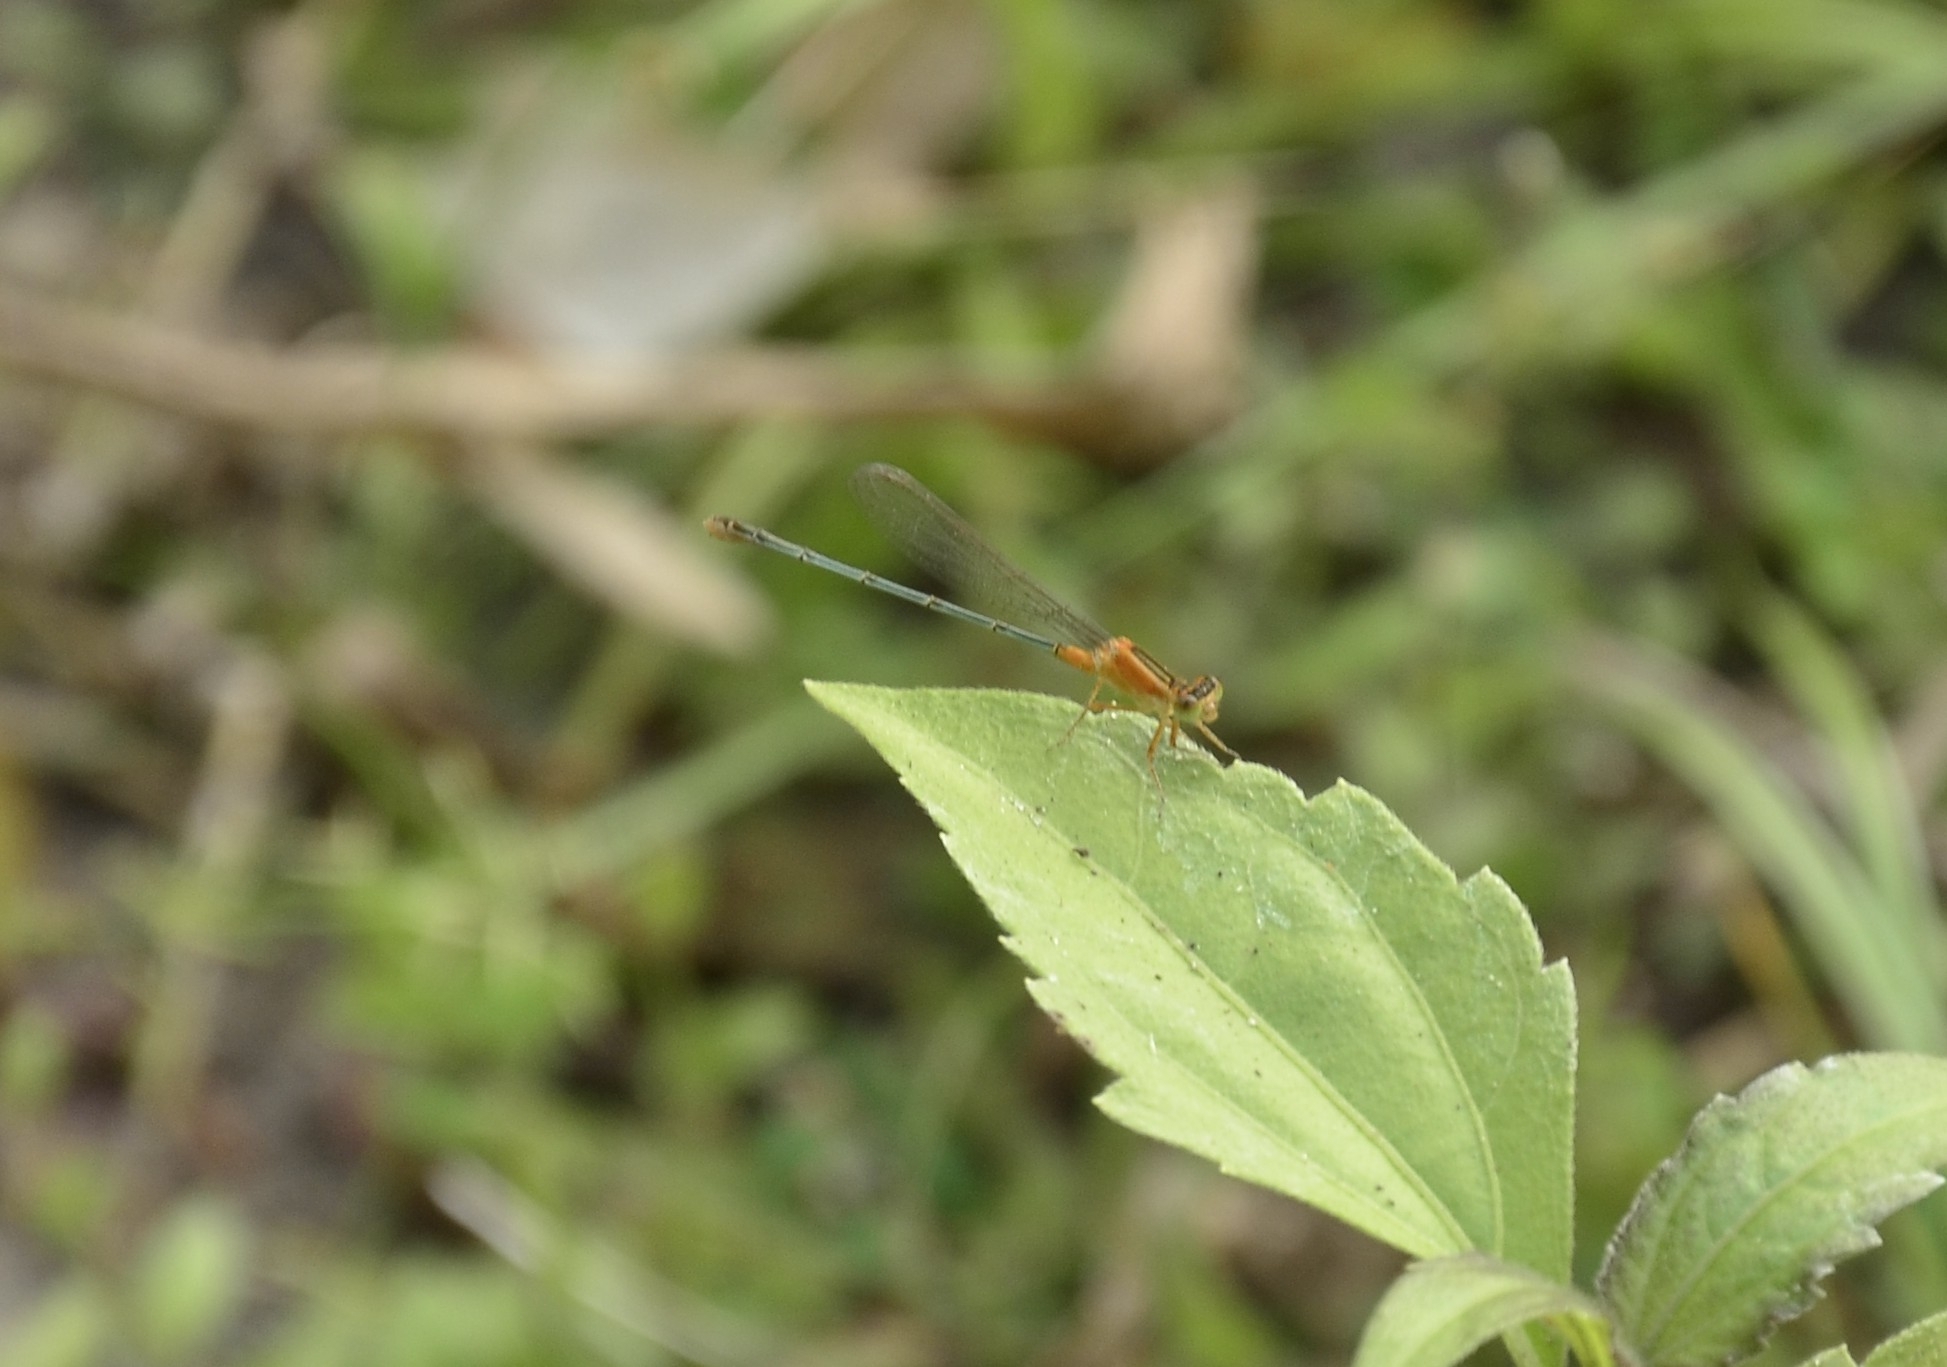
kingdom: Animalia
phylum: Arthropoda
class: Insecta
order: Odonata
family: Coenagrionidae
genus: Ischnura
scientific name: Ischnura senegalensis
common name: Tropical bluetail
